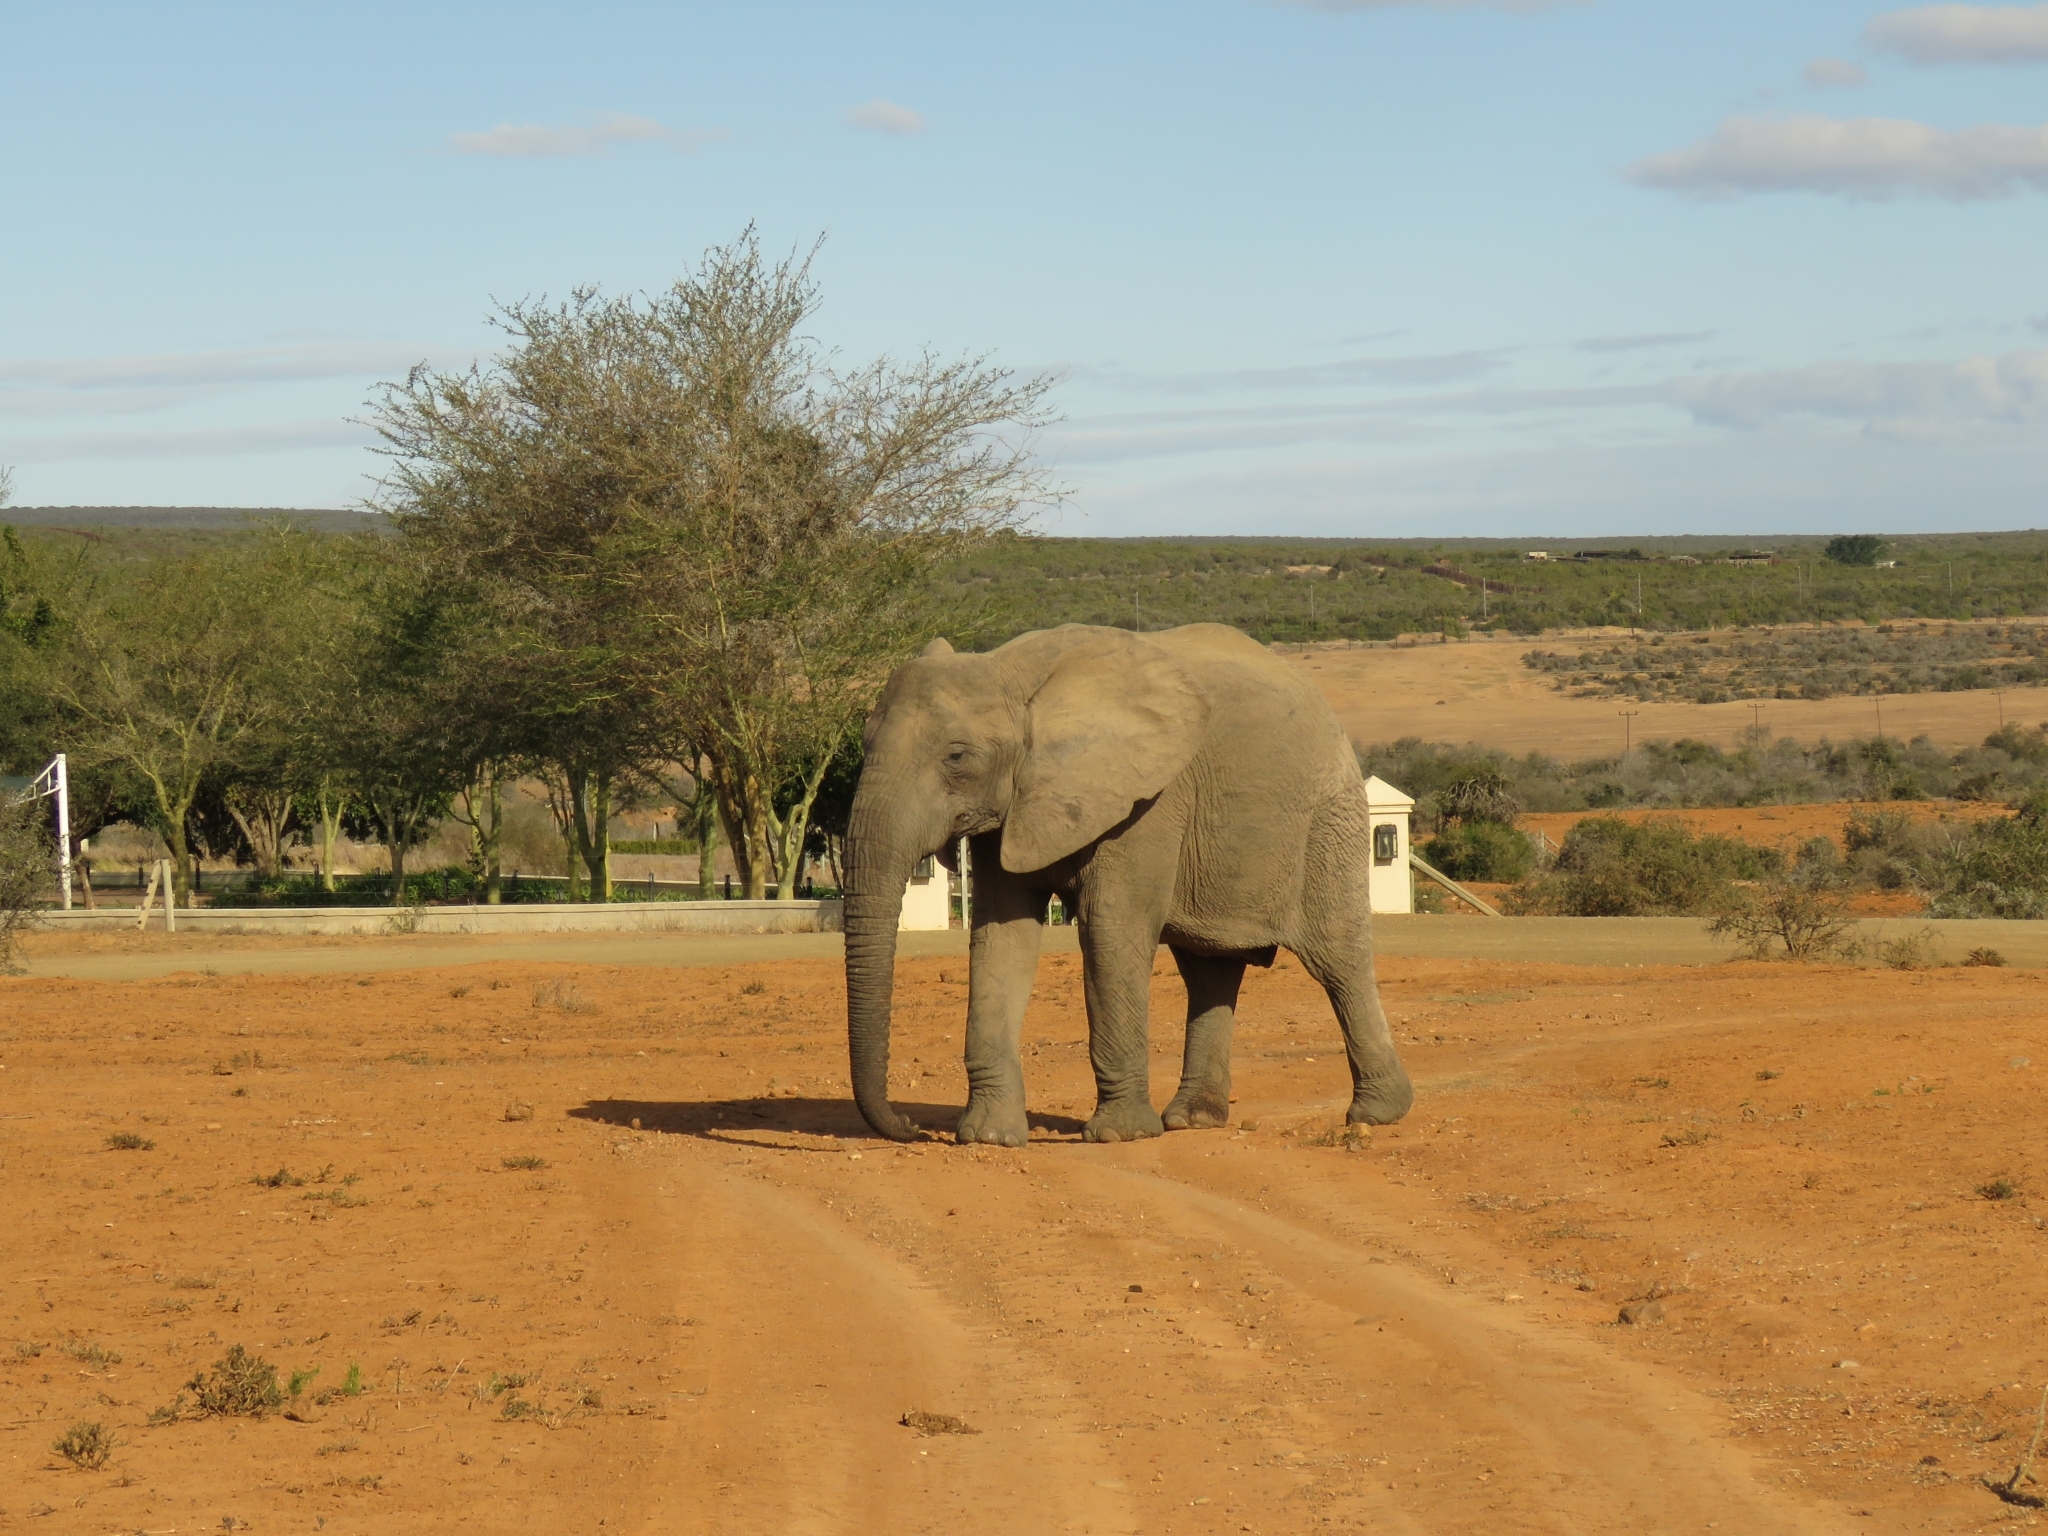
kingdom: Animalia
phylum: Chordata
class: Mammalia
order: Proboscidea
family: Elephantidae
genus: Loxodonta
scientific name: Loxodonta africana
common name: African elephant
